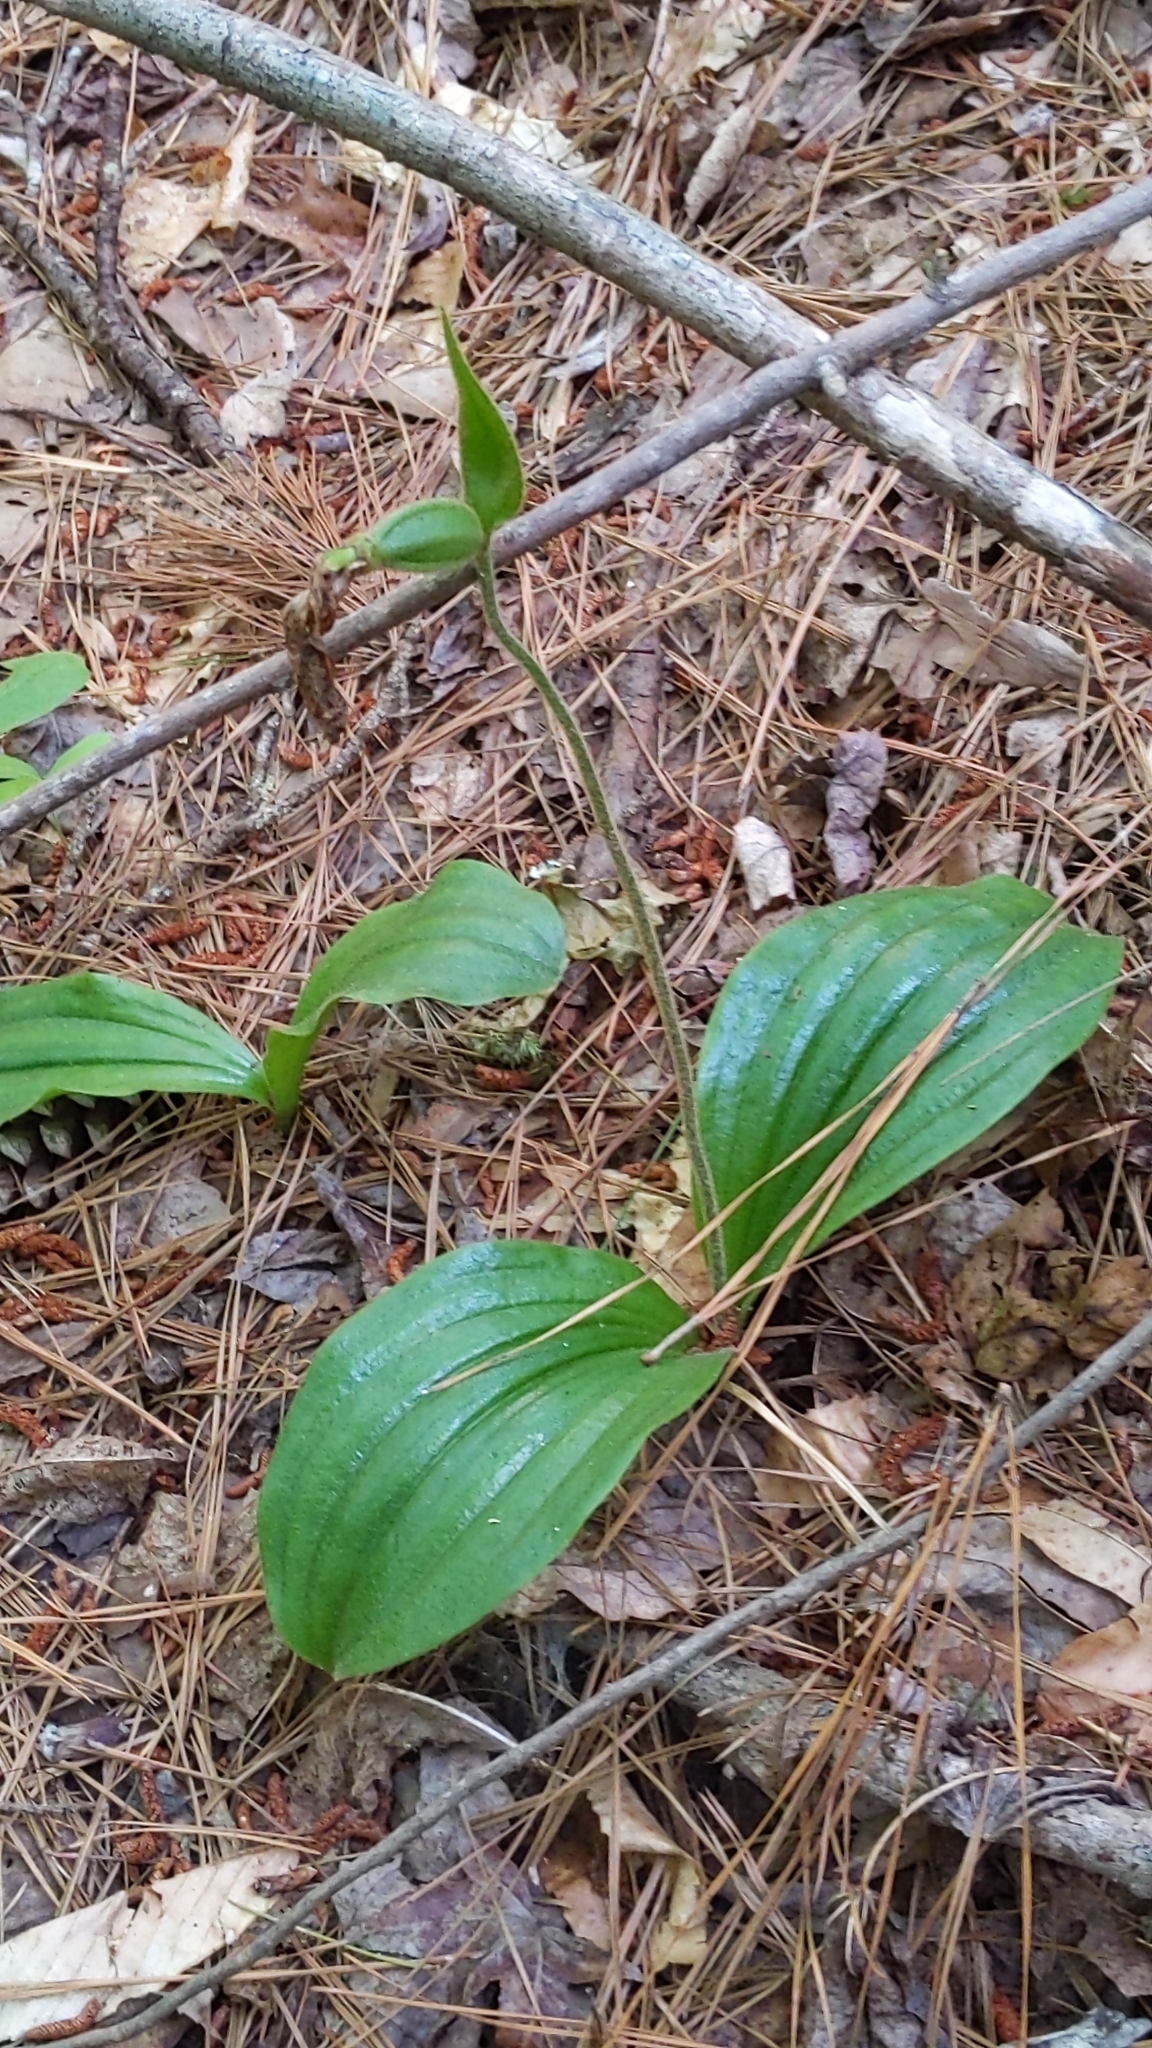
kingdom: Plantae
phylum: Tracheophyta
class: Liliopsida
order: Asparagales
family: Orchidaceae
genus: Cypripedium
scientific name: Cypripedium acaule
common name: Pink lady's-slipper
